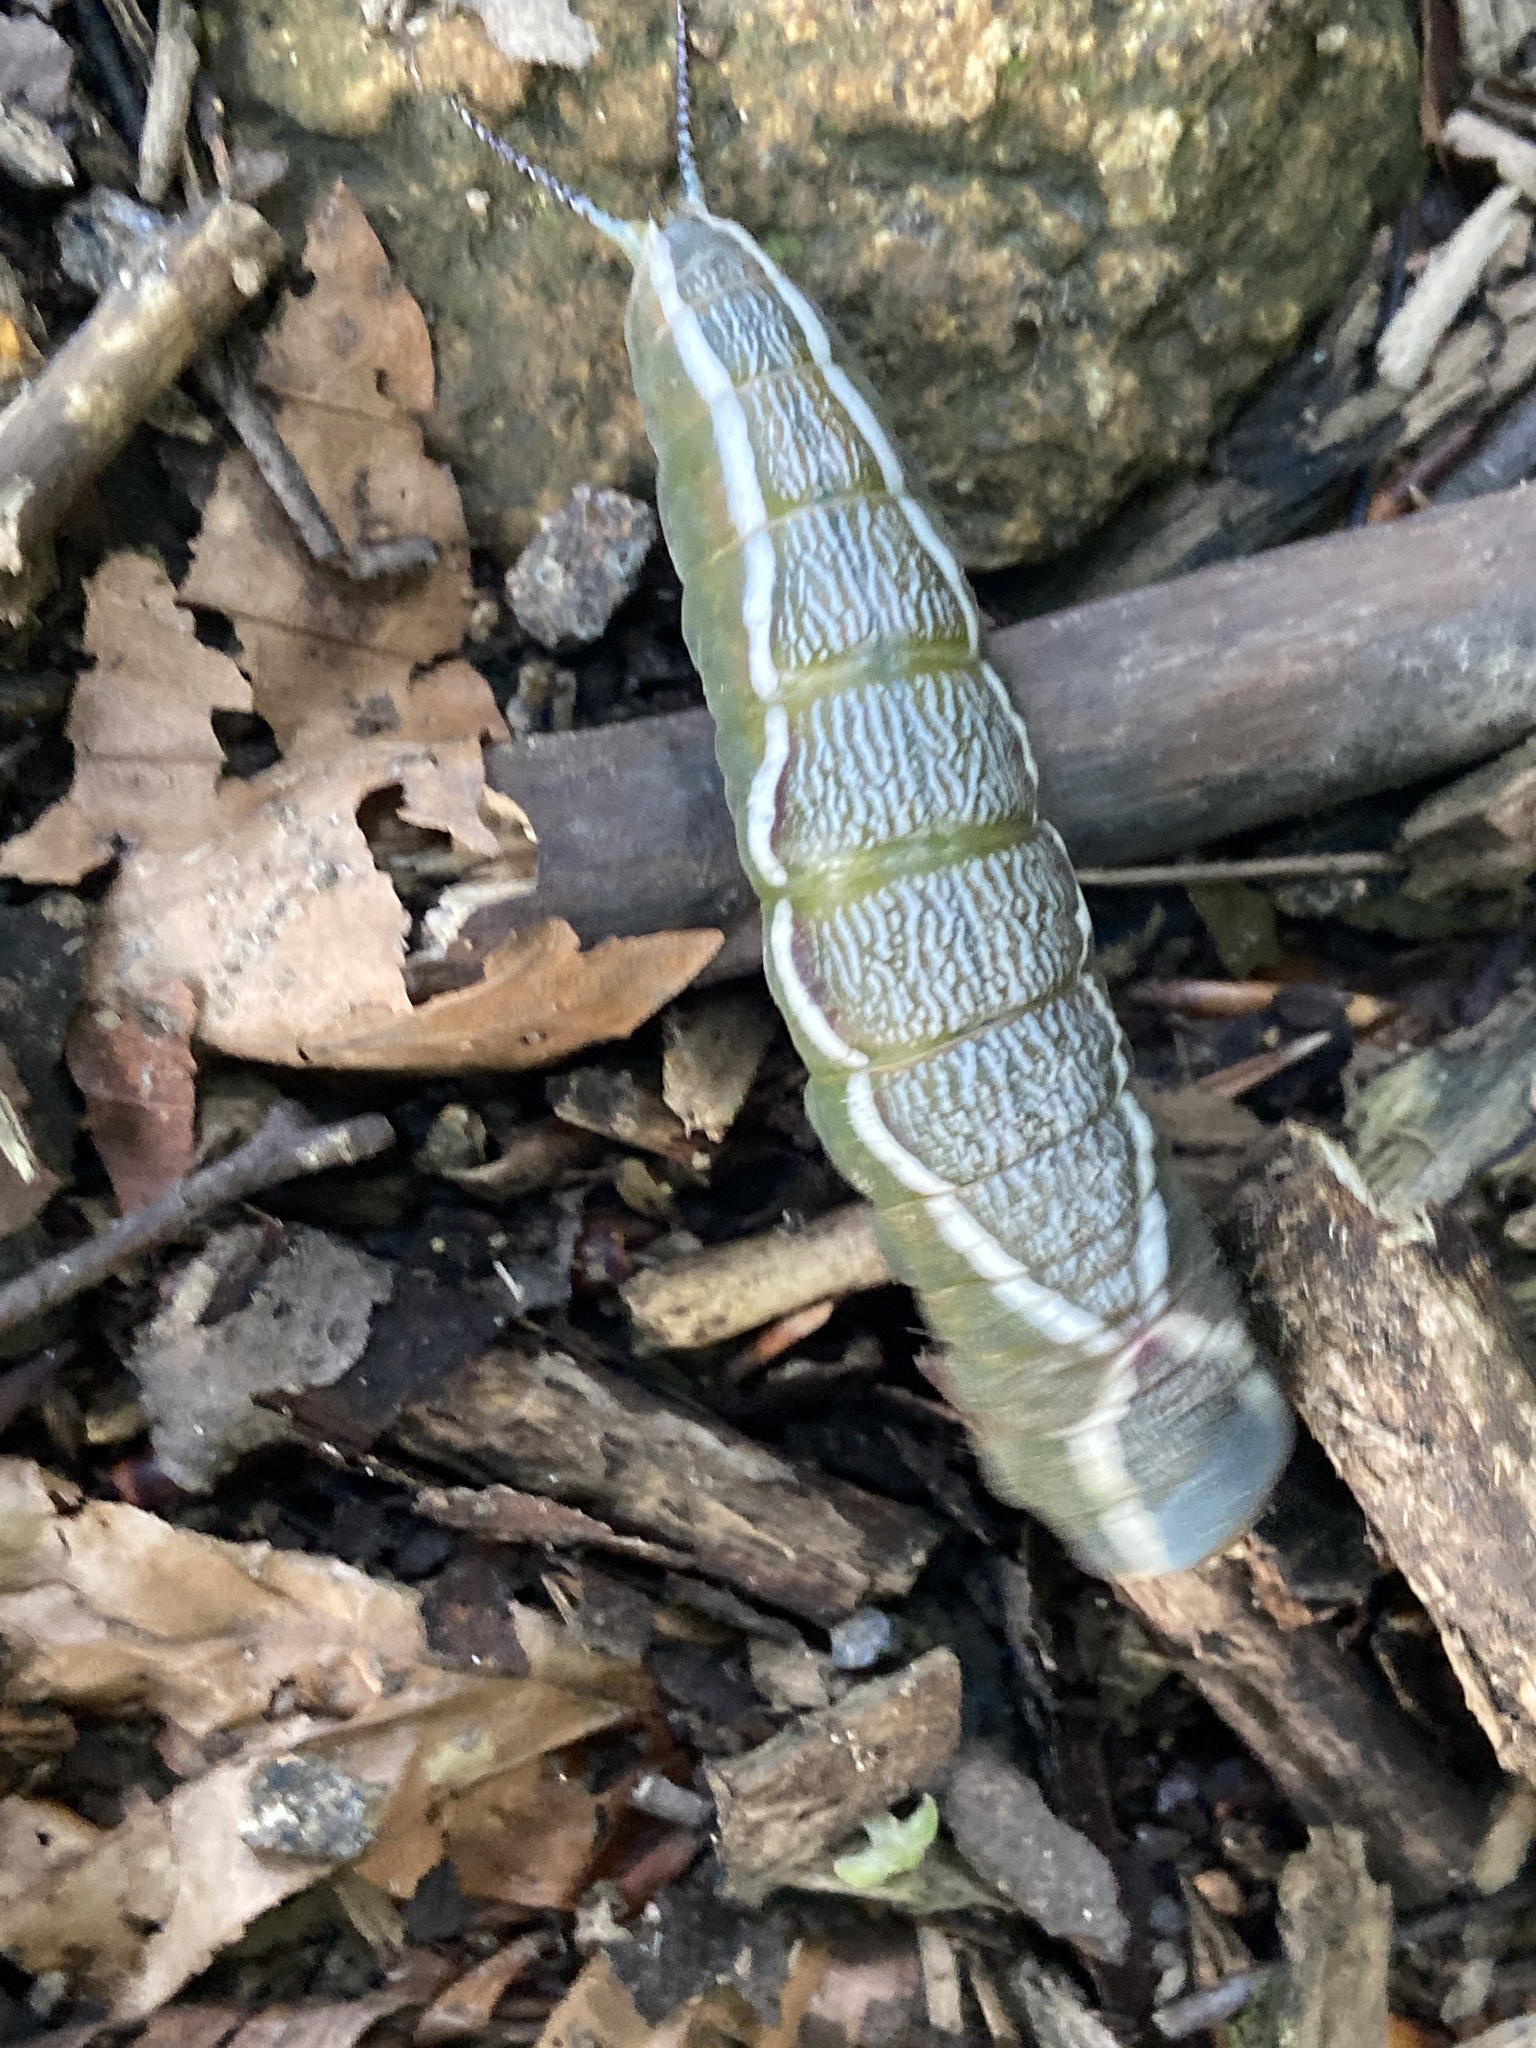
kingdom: Animalia
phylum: Arthropoda
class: Insecta
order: Lepidoptera
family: Notodontidae
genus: Cerura
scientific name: Cerura vinula
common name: Puss moth
